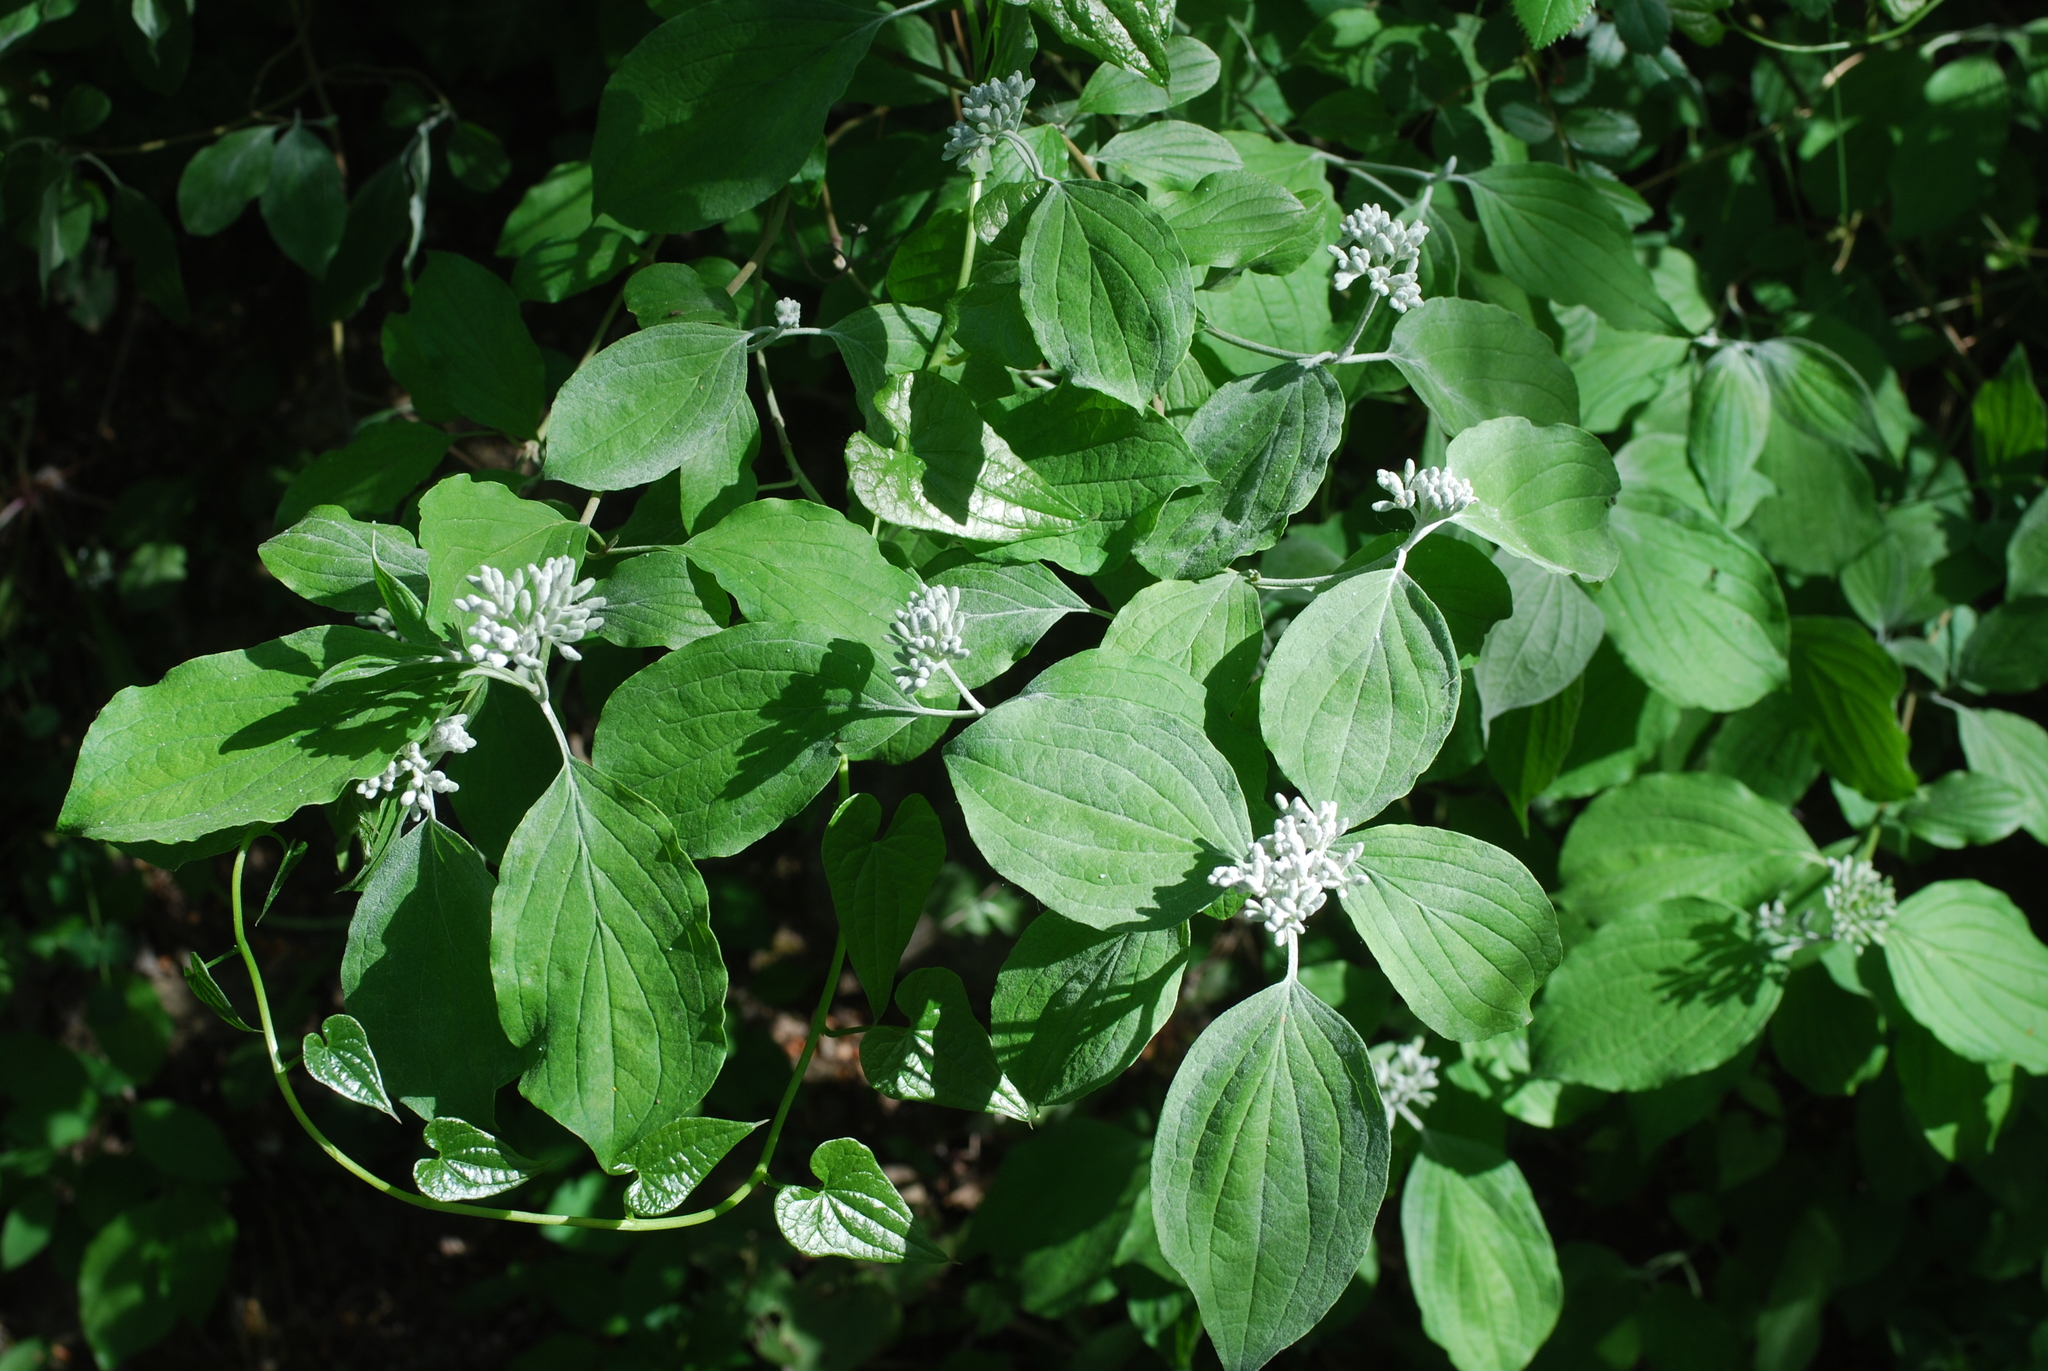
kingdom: Plantae
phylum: Tracheophyta
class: Magnoliopsida
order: Cornales
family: Cornaceae
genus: Cornus
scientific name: Cornus sanguinea
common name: Dogwood
